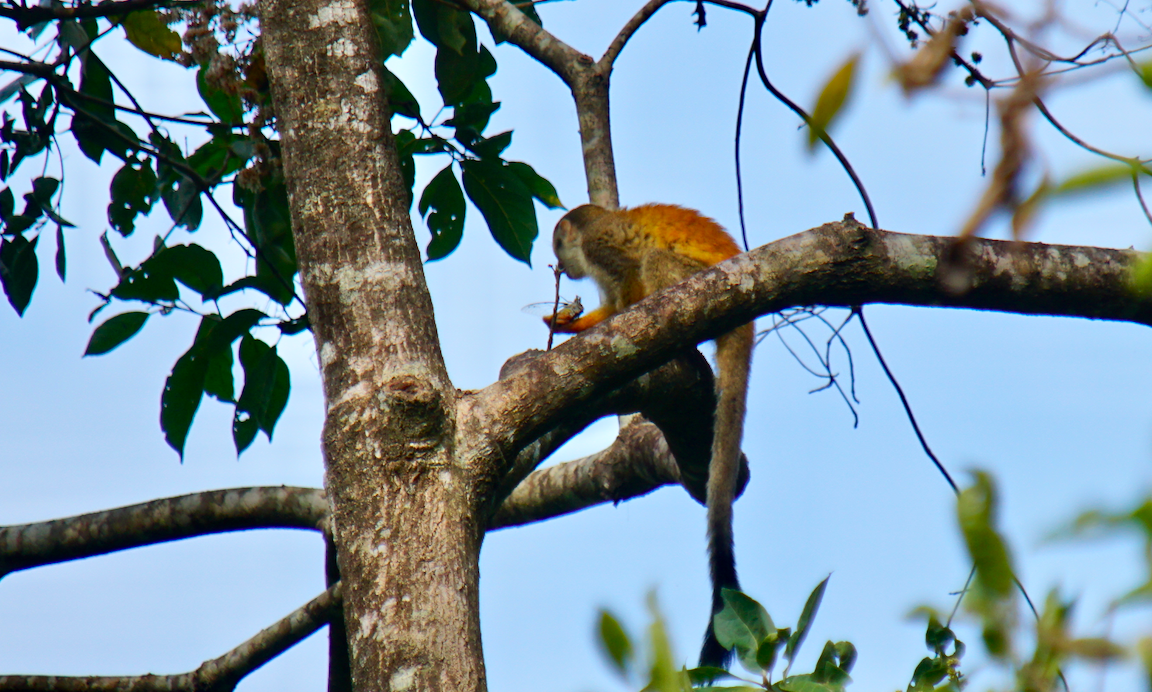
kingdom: Animalia
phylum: Chordata
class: Mammalia
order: Primates
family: Cebidae
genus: Saimiri
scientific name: Saimiri oerstedii
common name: Central american squirrel monkey
